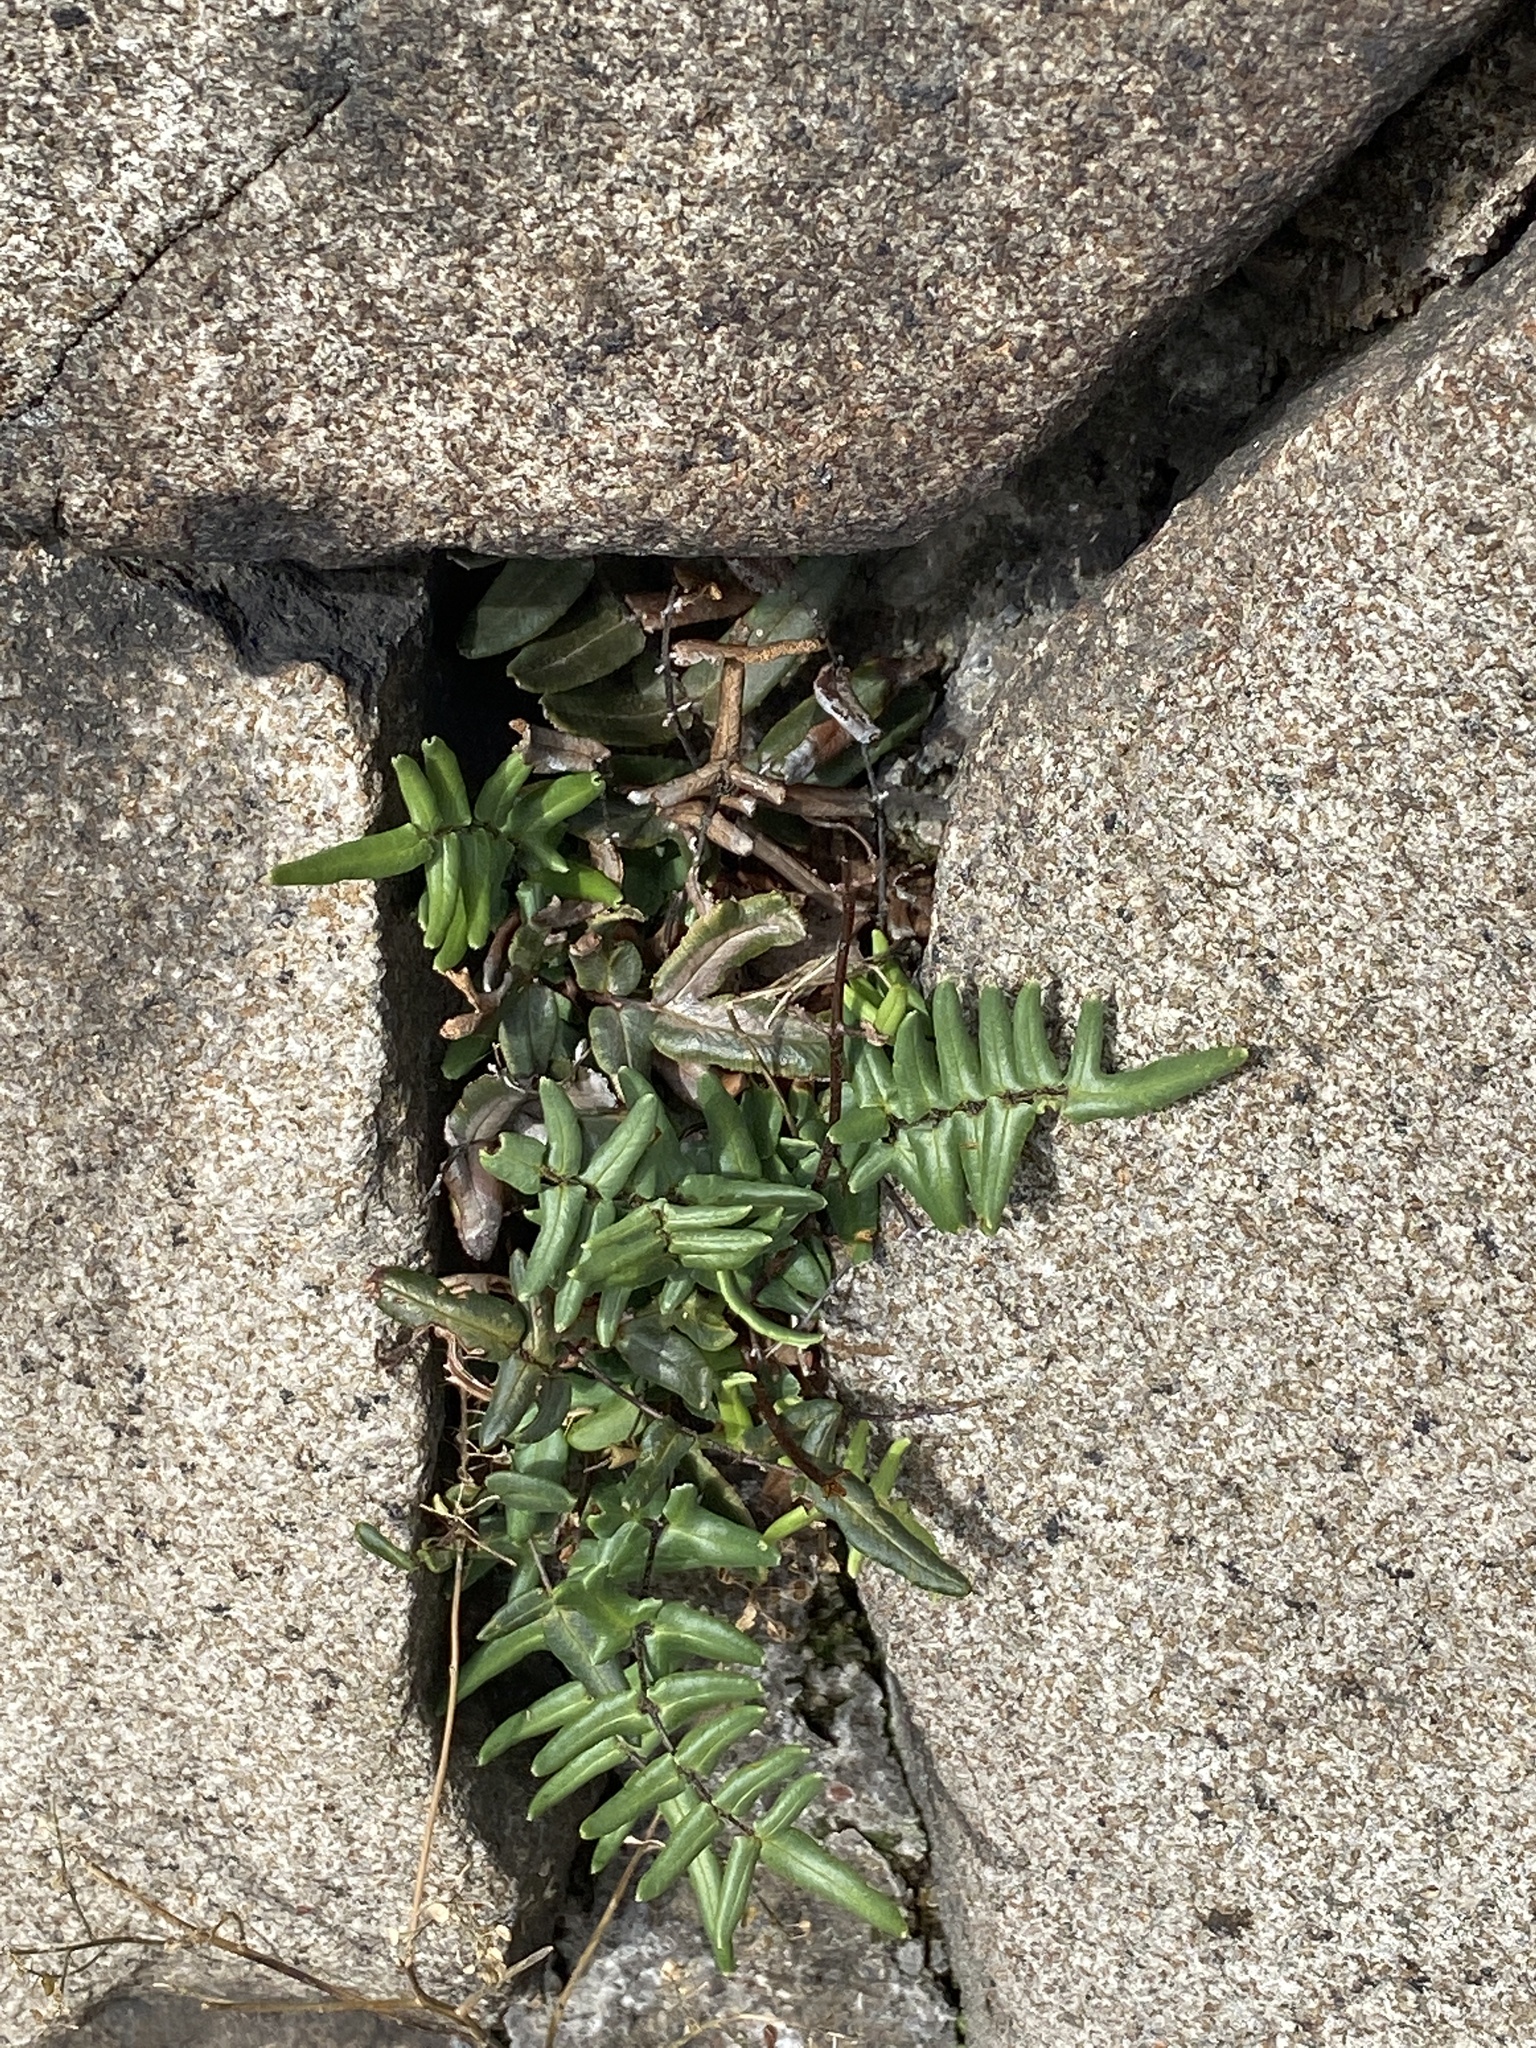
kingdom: Plantae
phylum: Tracheophyta
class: Polypodiopsida
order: Polypodiales
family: Pteridaceae
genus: Pellaea
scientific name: Pellaea atropurpurea
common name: Hairy cliffbrake
